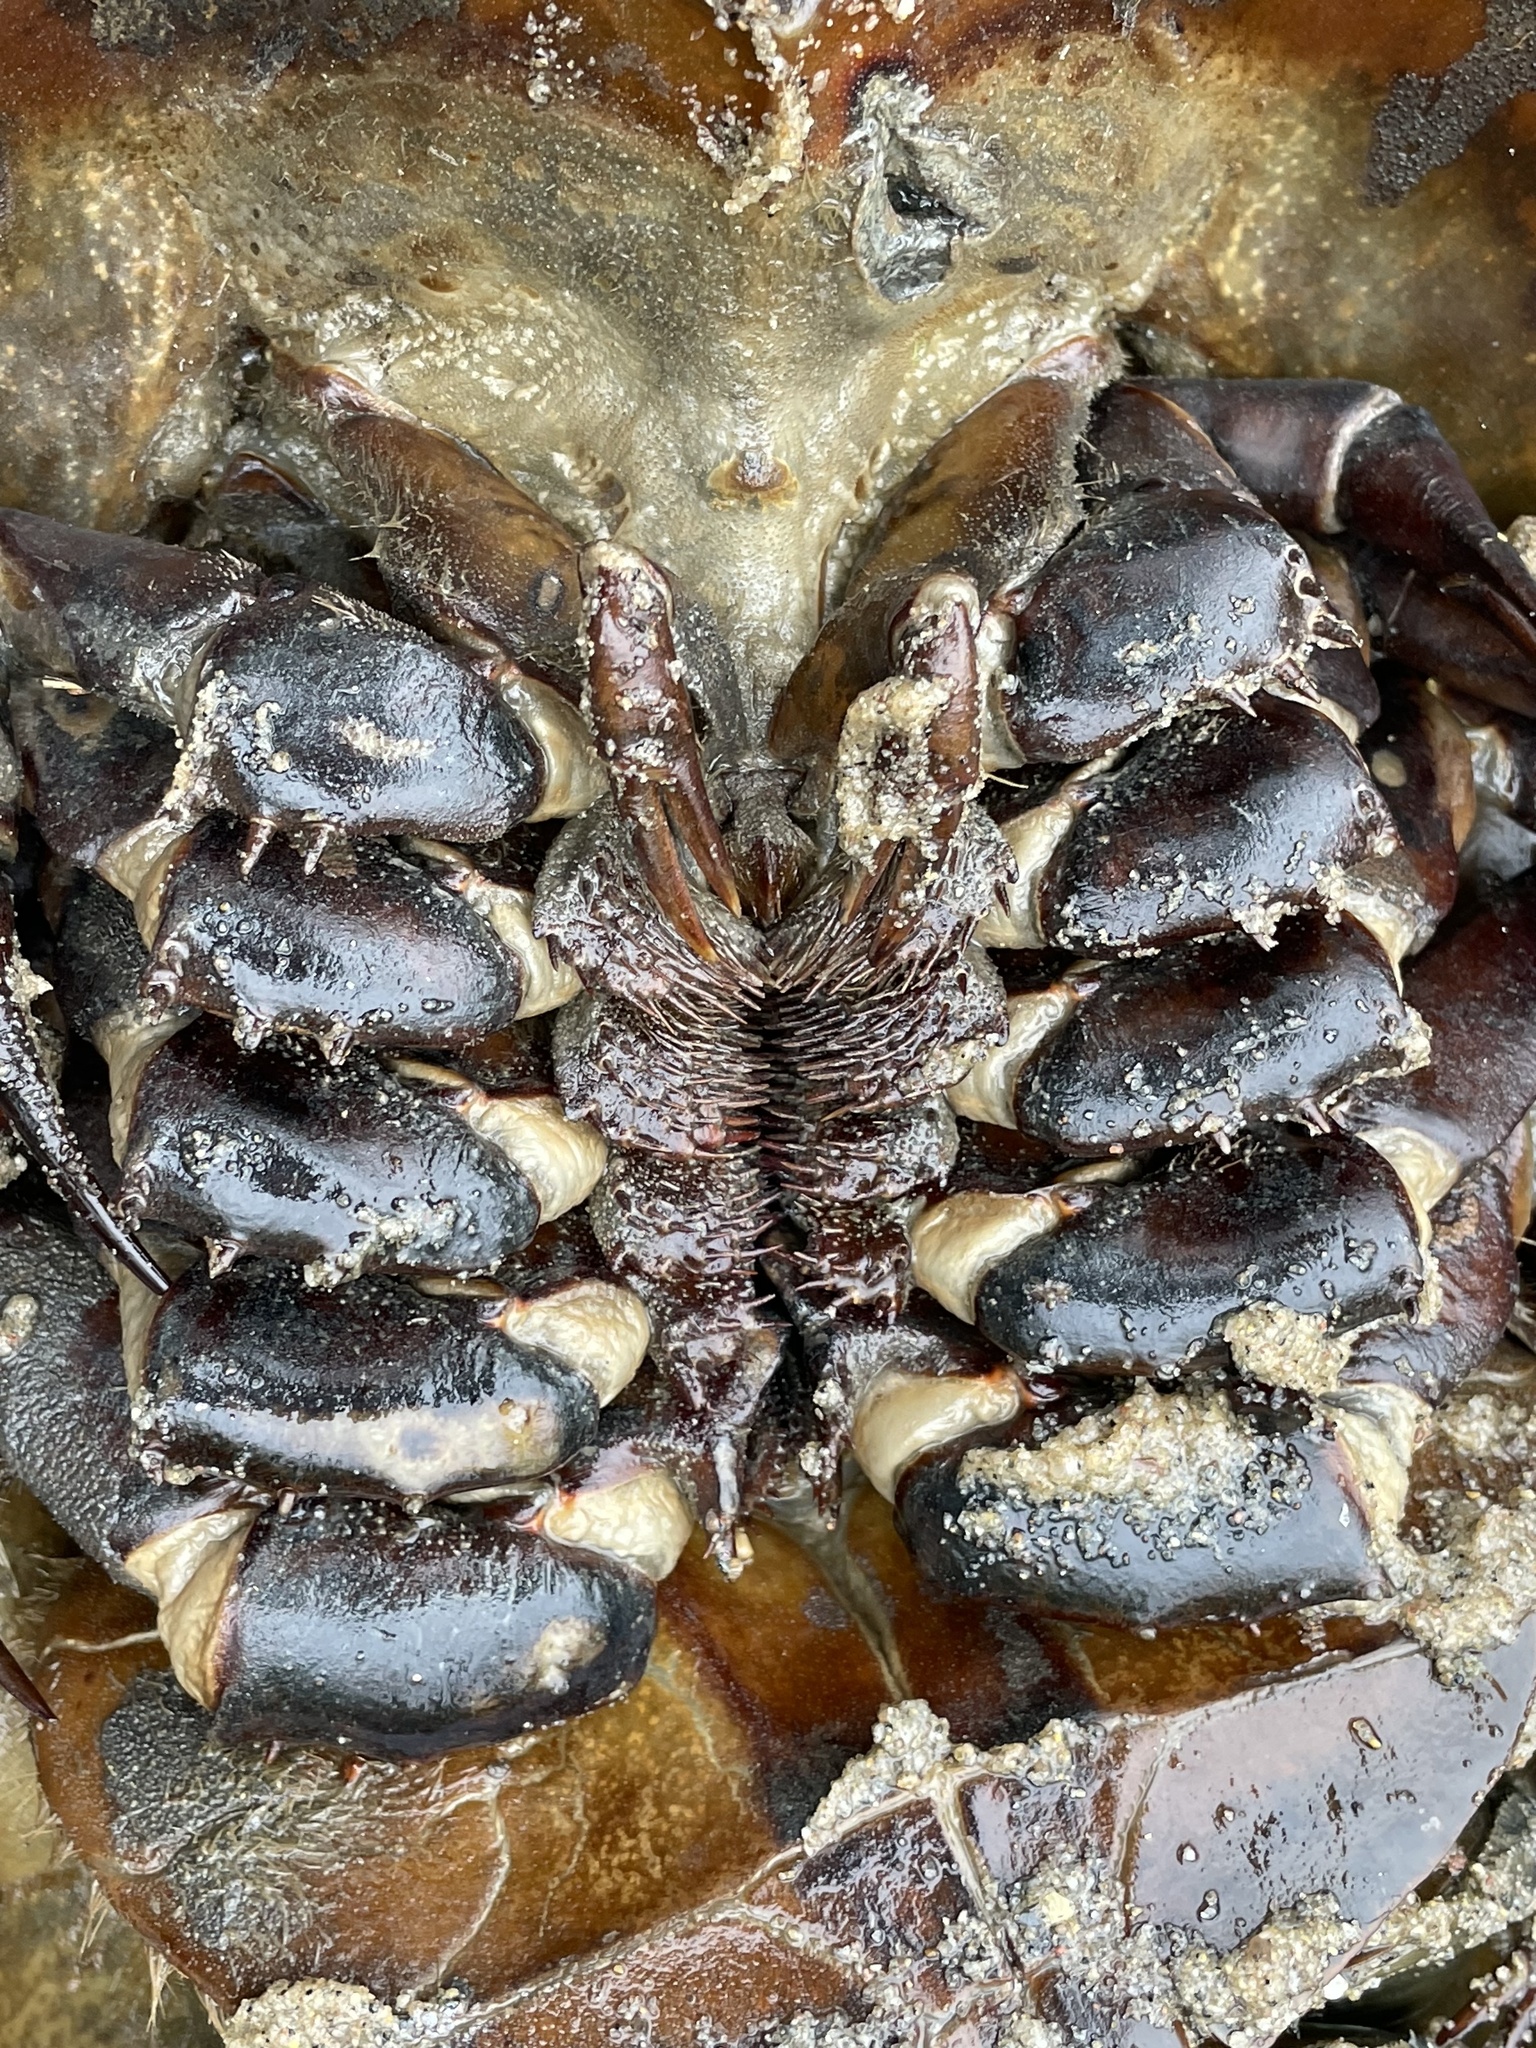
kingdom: Animalia
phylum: Arthropoda
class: Merostomata
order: Xiphosurida
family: Limulidae
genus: Limulus
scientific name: Limulus polyphemus
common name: Horseshoe crab
